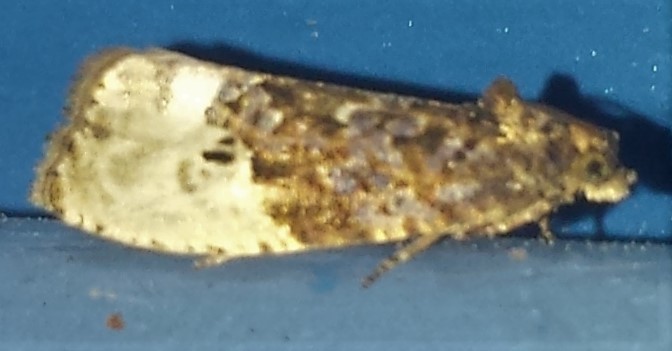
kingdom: Animalia
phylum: Arthropoda
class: Insecta
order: Lepidoptera
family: Tortricidae
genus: Hedya
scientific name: Hedya nubiferana
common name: Marbled orchard tortrix
